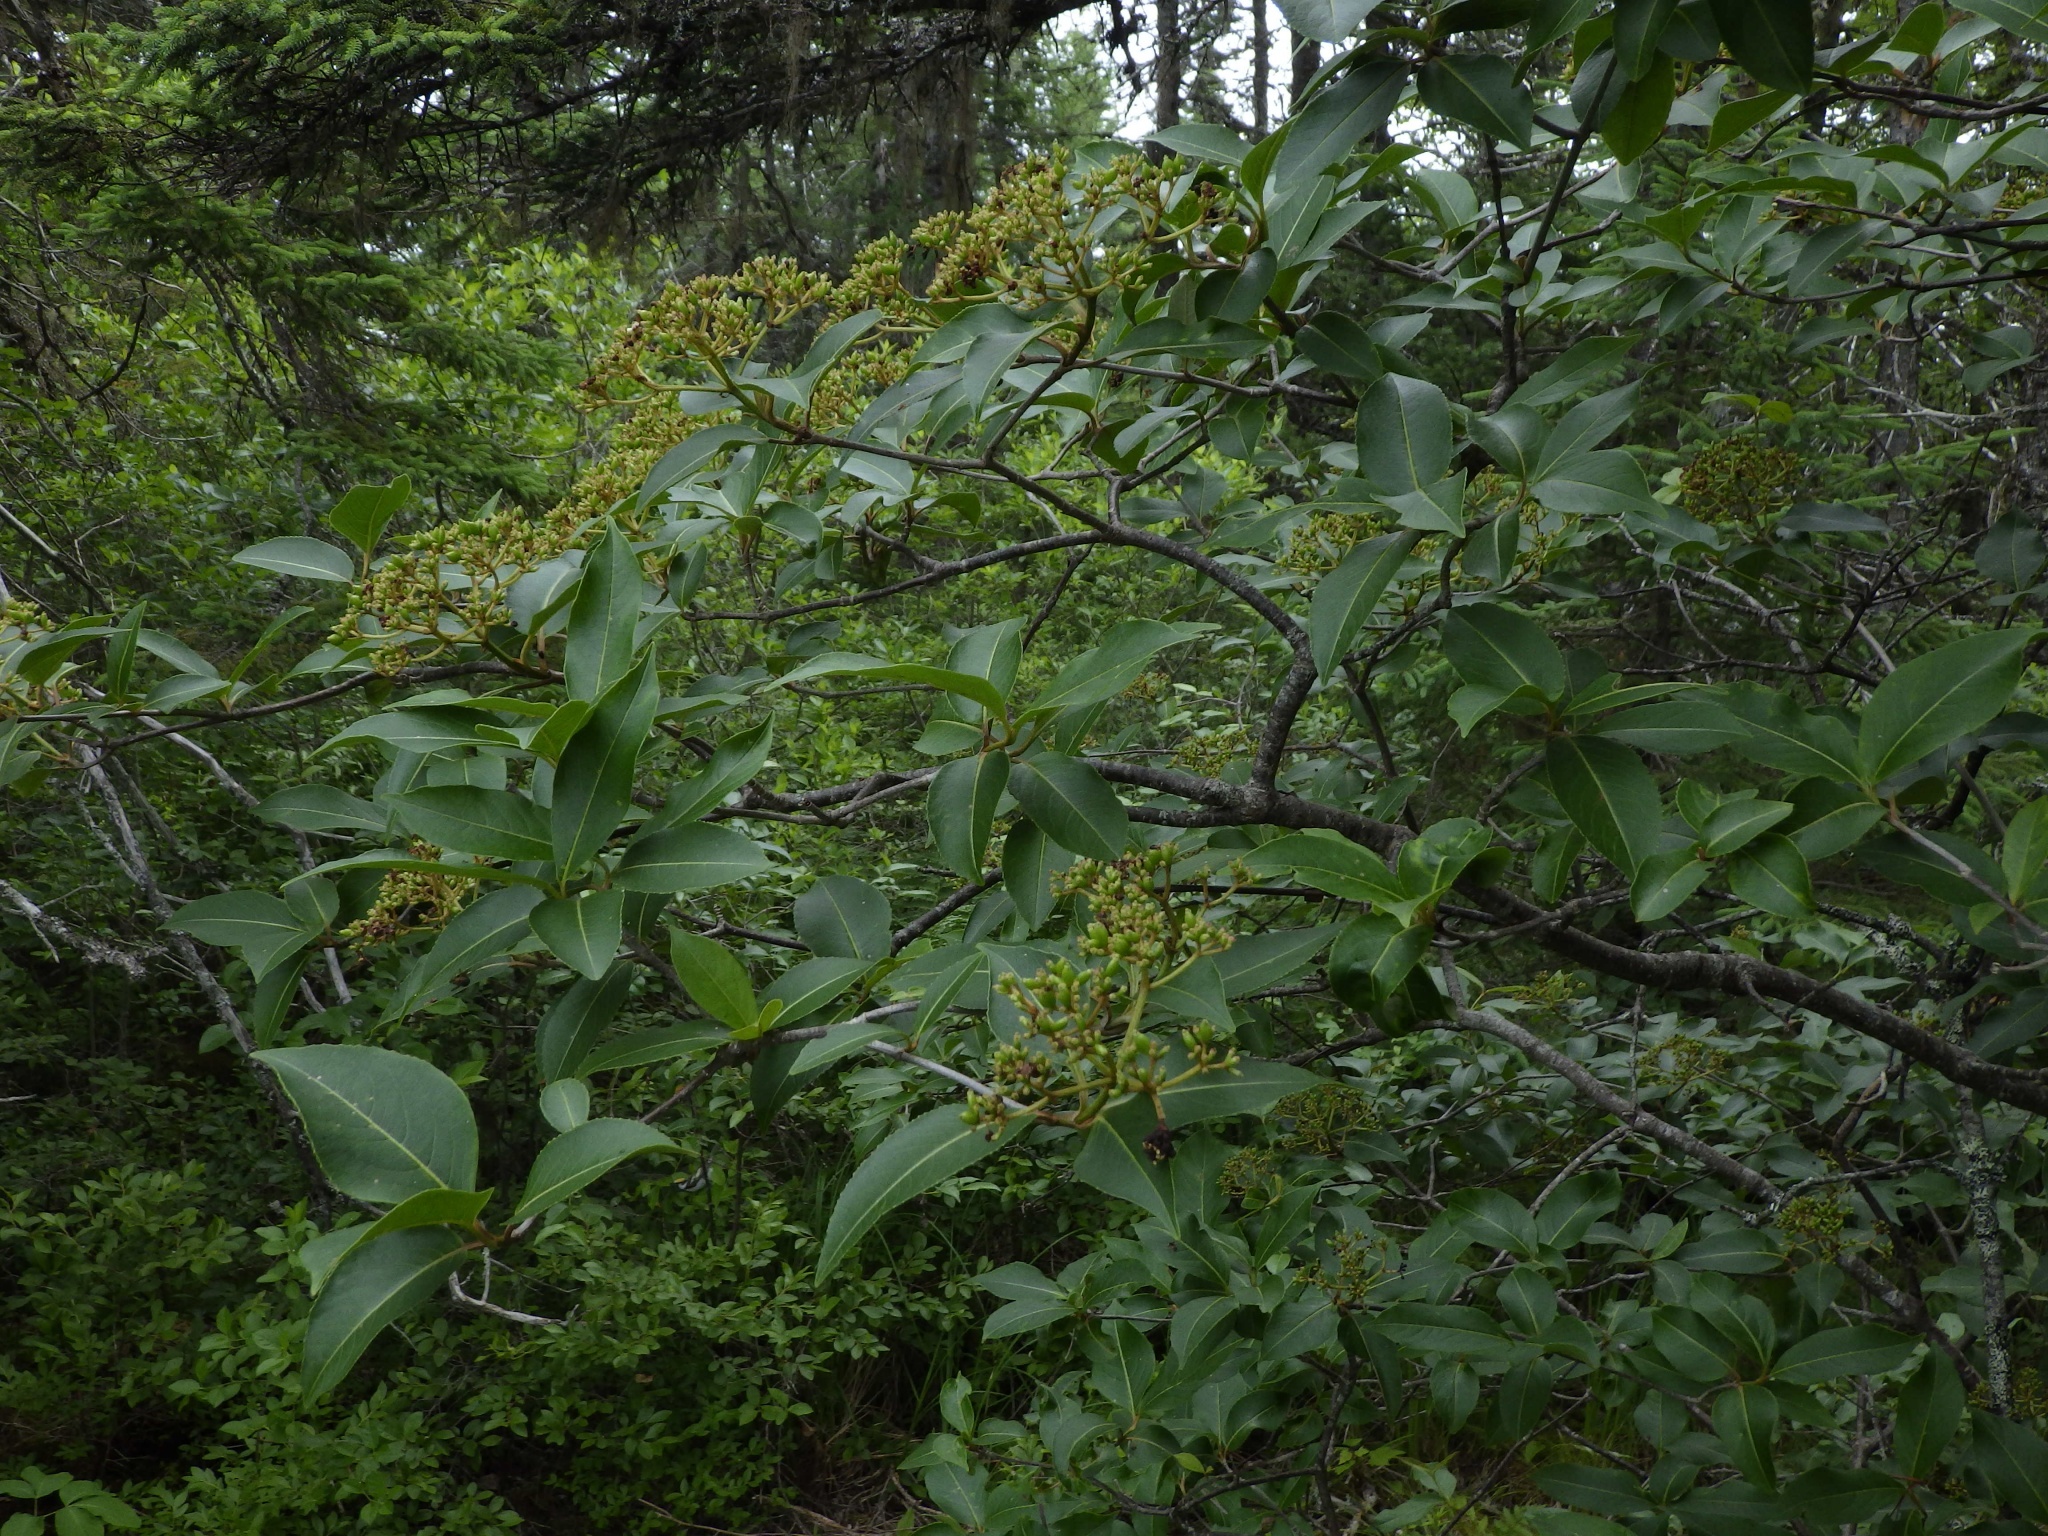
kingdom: Plantae
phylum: Tracheophyta
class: Magnoliopsida
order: Dipsacales
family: Viburnaceae
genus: Viburnum
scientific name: Viburnum cassinoides
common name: Swamp haw
